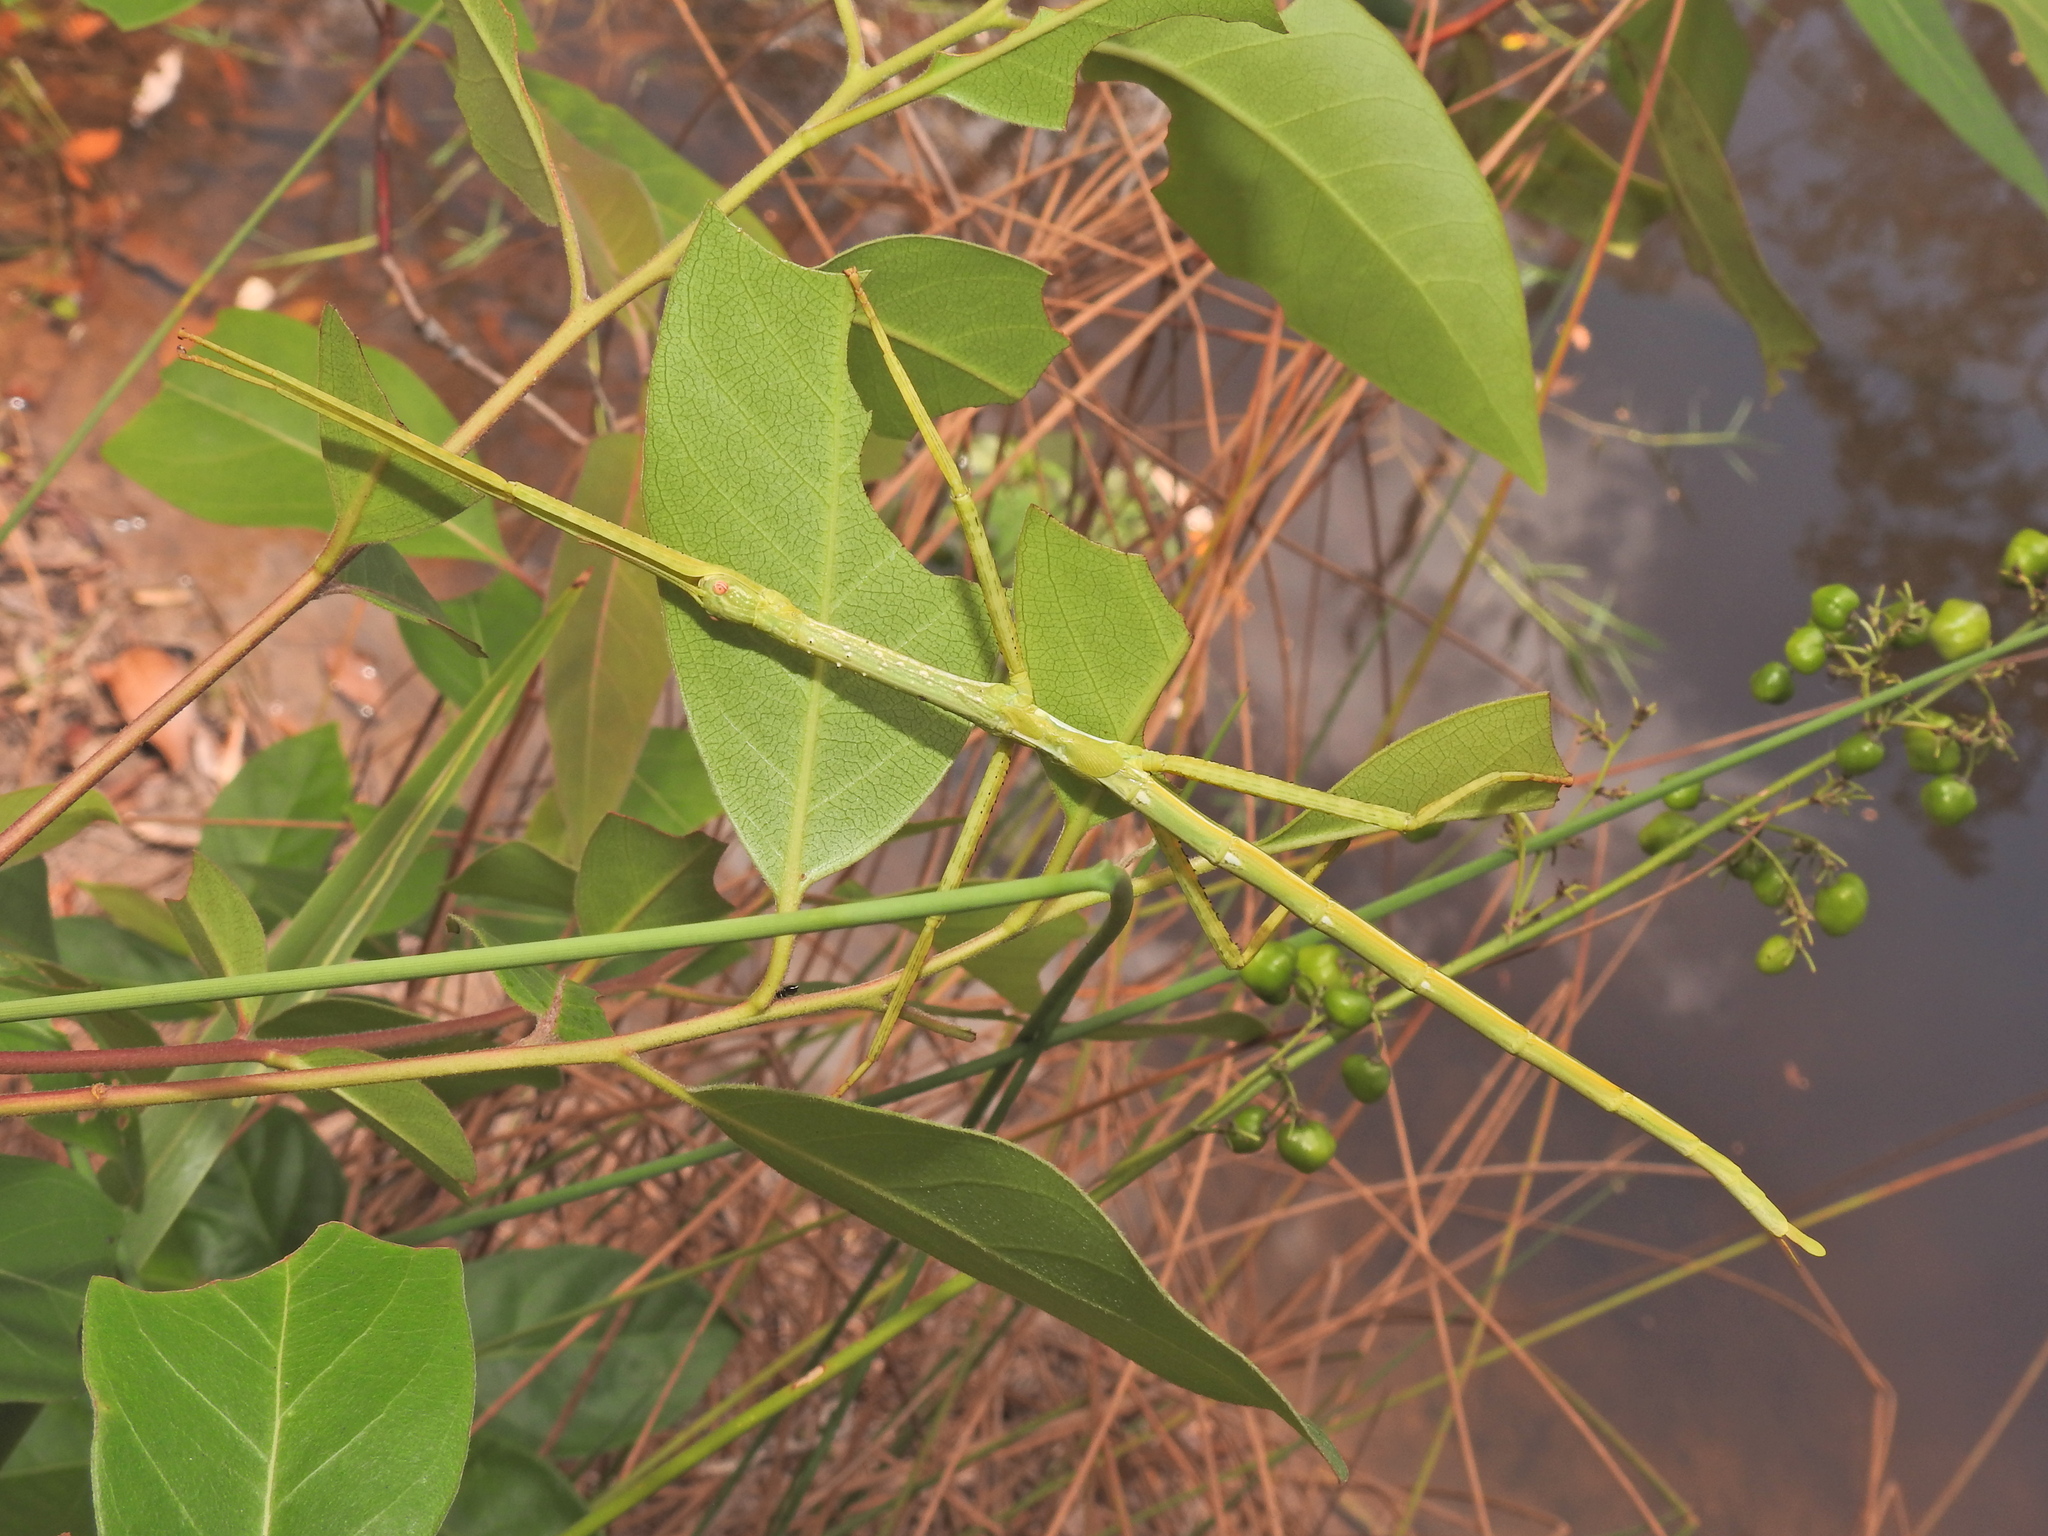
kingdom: Animalia
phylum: Arthropoda
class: Insecta
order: Phasmida
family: Phasmatidae
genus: Anchiale
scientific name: Anchiale austrotessulata
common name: Tessellated stick-insect
